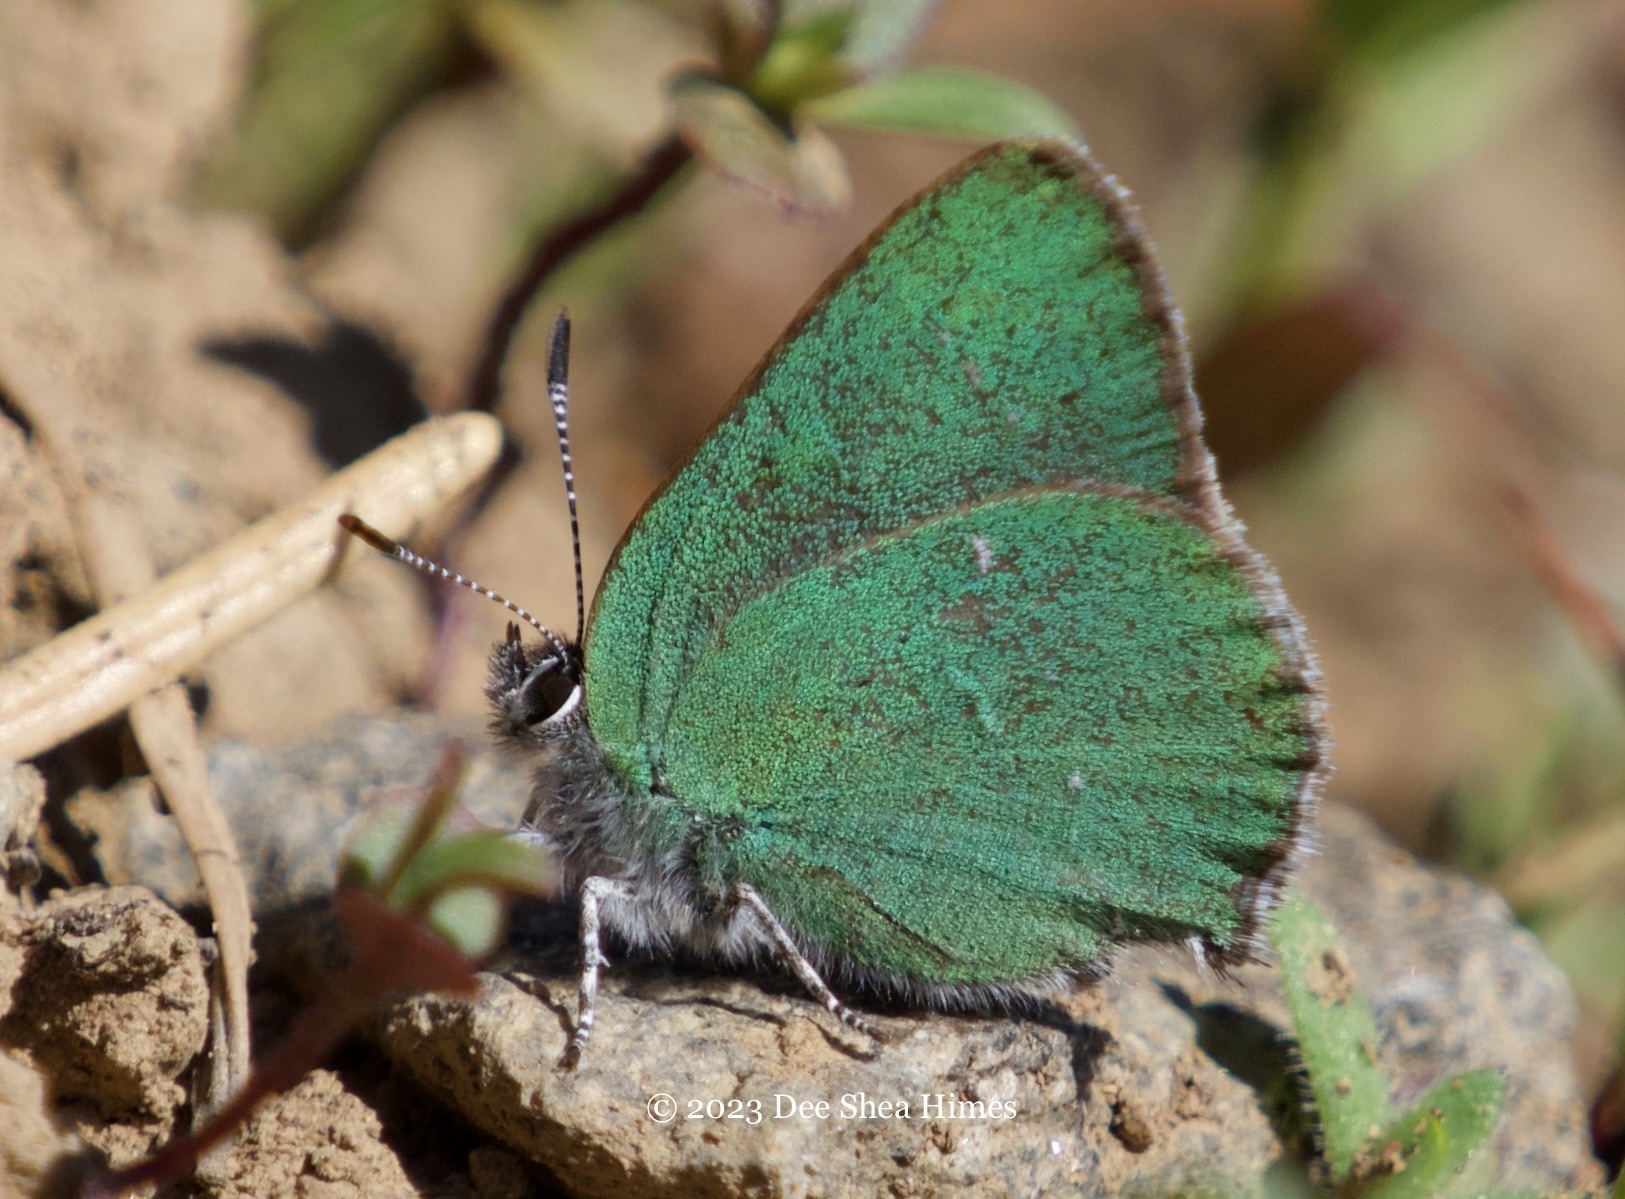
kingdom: Animalia
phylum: Arthropoda
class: Insecta
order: Lepidoptera
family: Lycaenidae
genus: Thecla
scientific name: Thecla sheridanii
